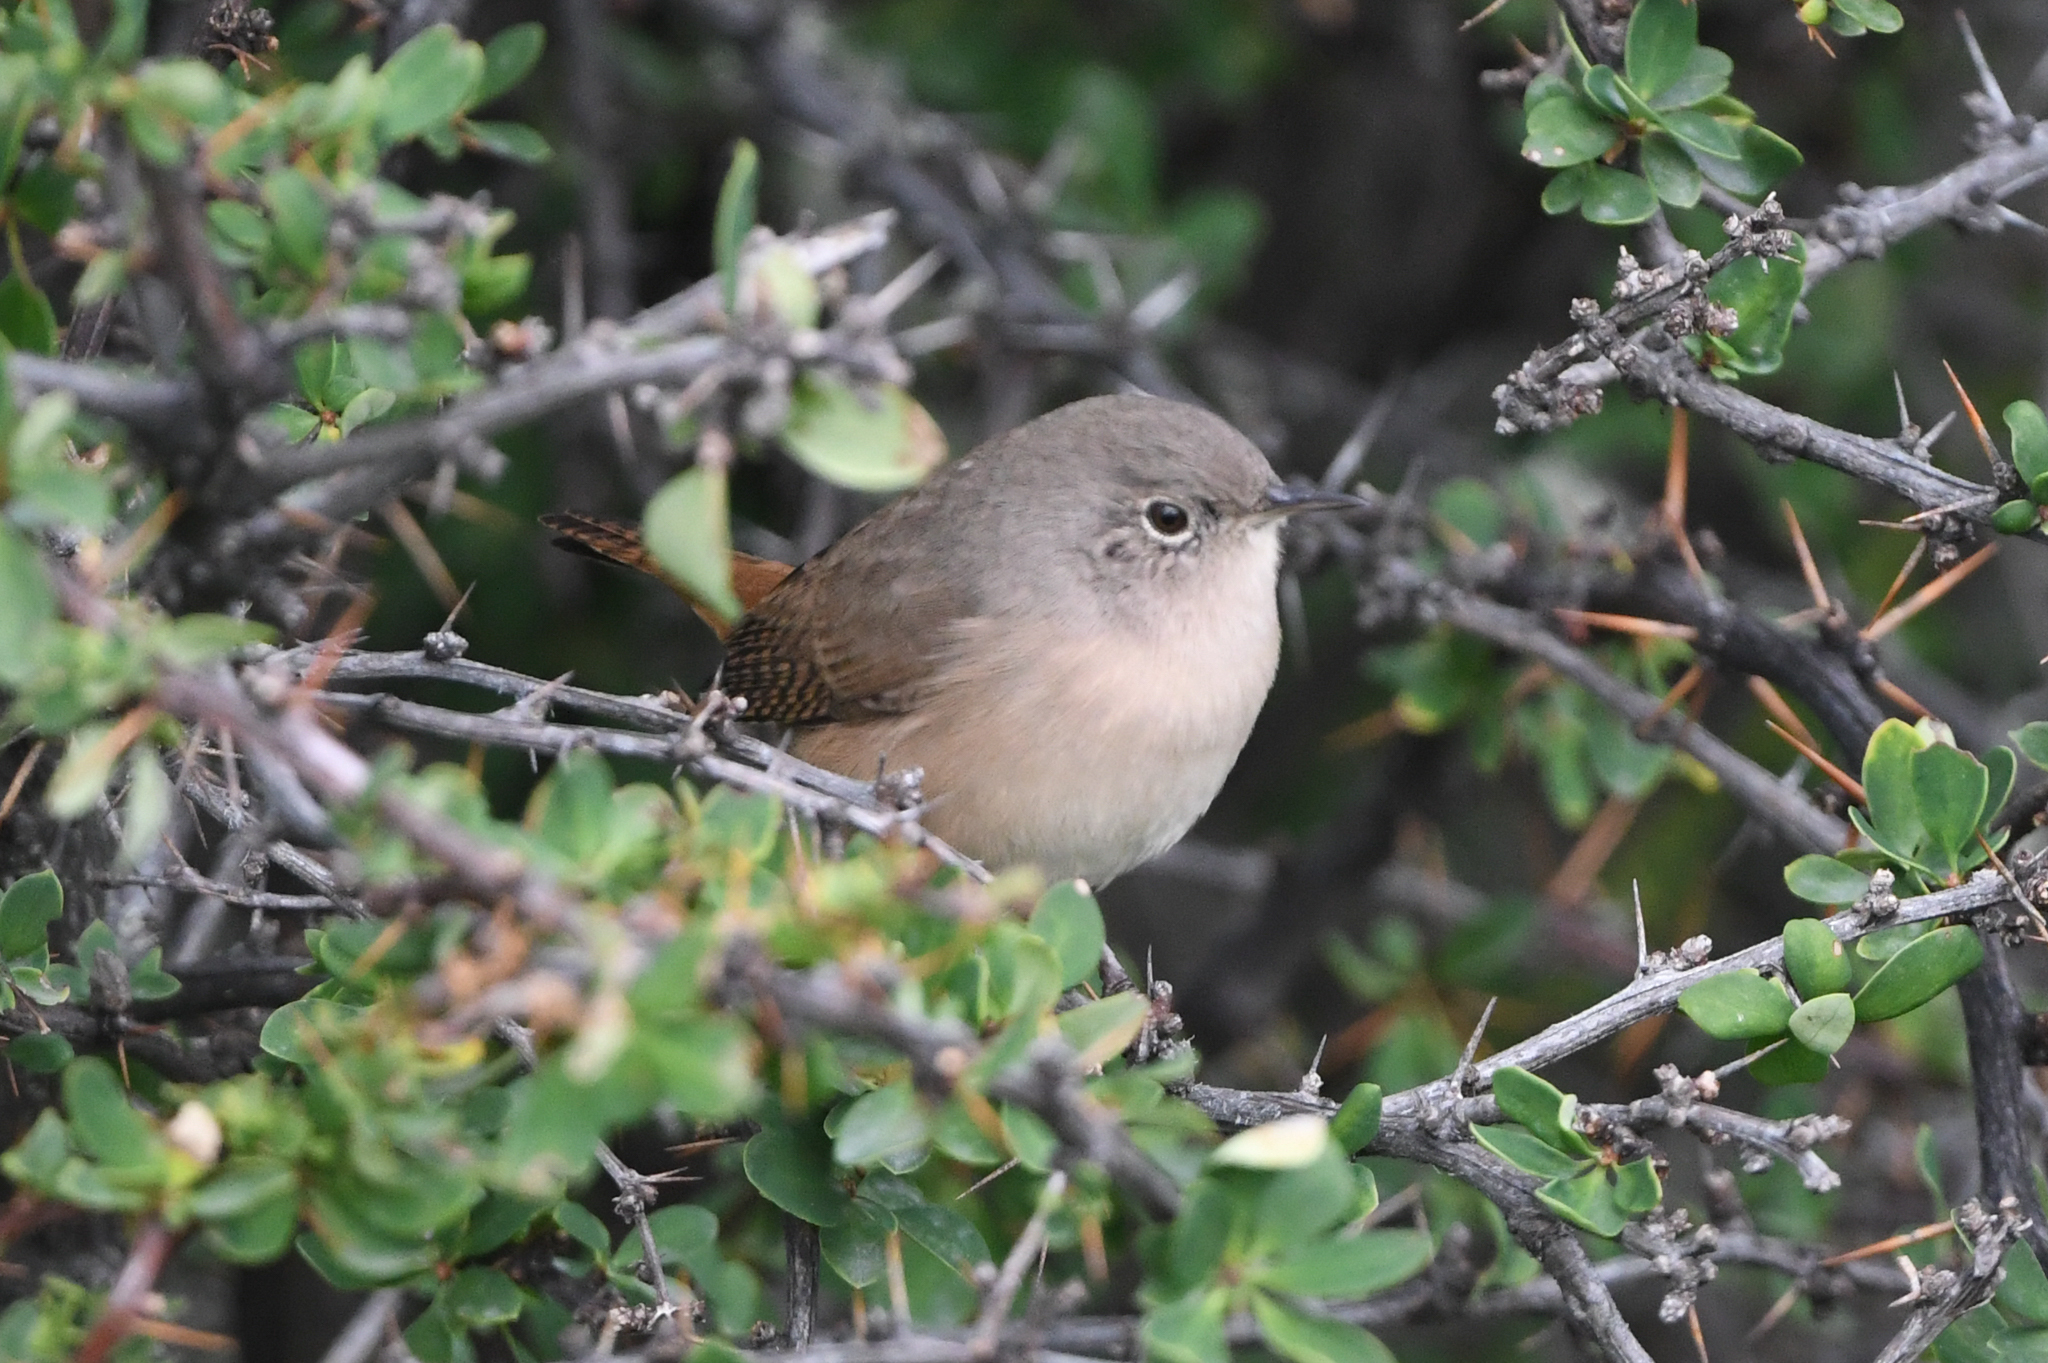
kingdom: Animalia
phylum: Chordata
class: Aves
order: Passeriformes
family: Troglodytidae
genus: Troglodytes
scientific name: Troglodytes aedon
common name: House wren
